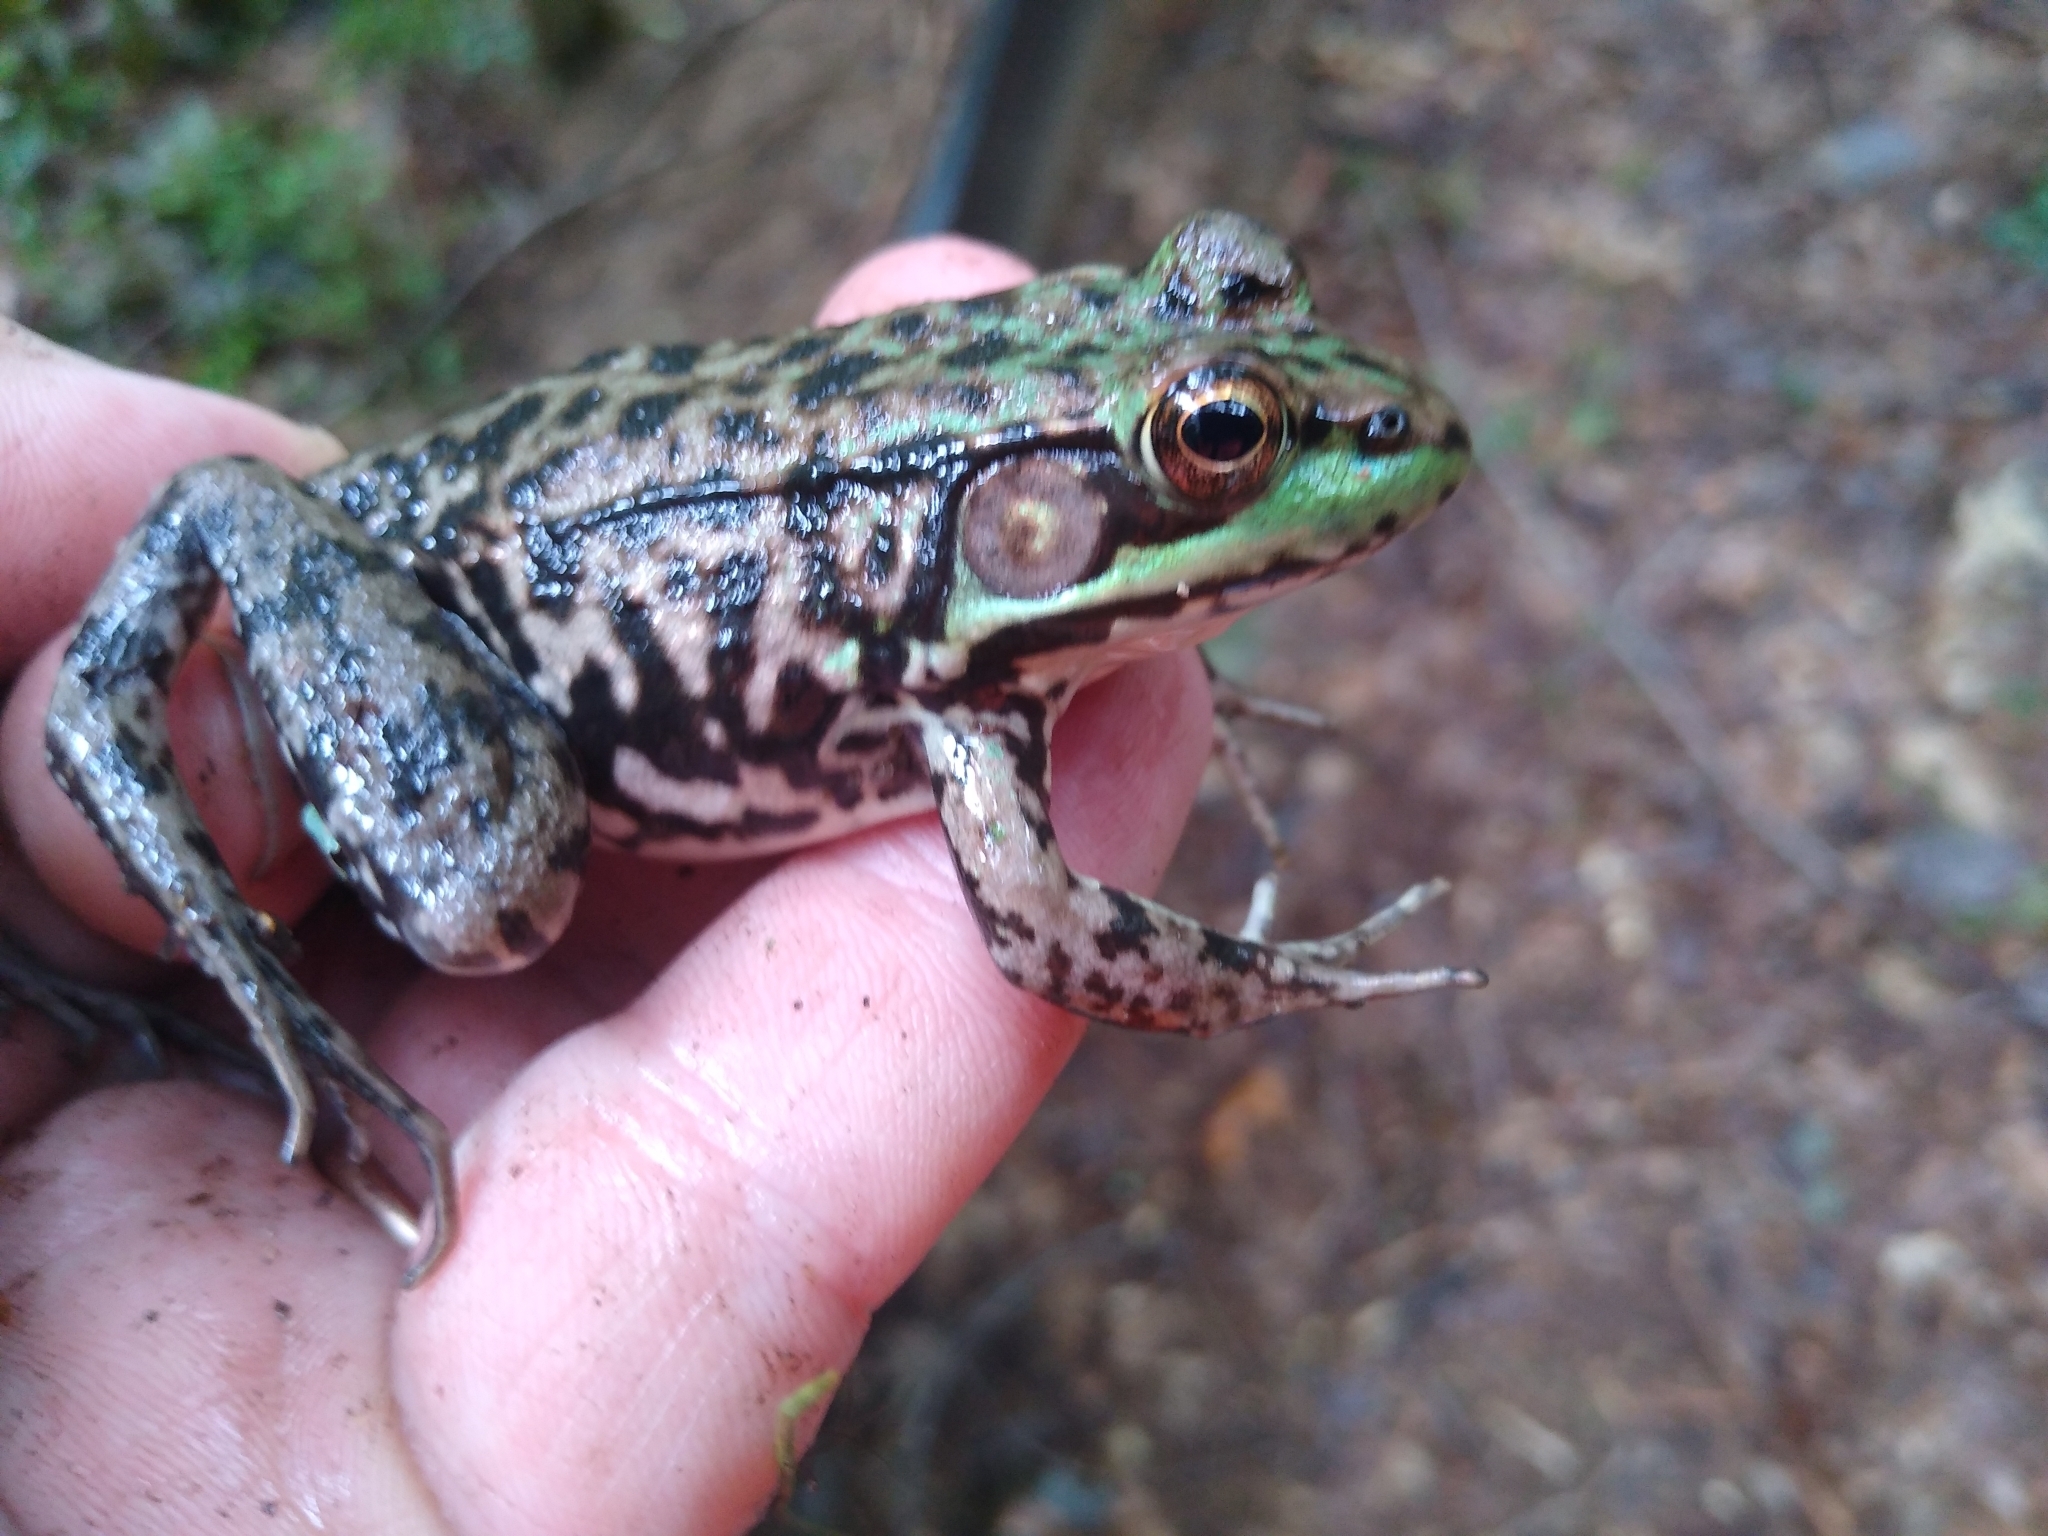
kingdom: Animalia
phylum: Chordata
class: Amphibia
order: Anura
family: Ranidae
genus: Lithobates
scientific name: Lithobates clamitans
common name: Green frog
